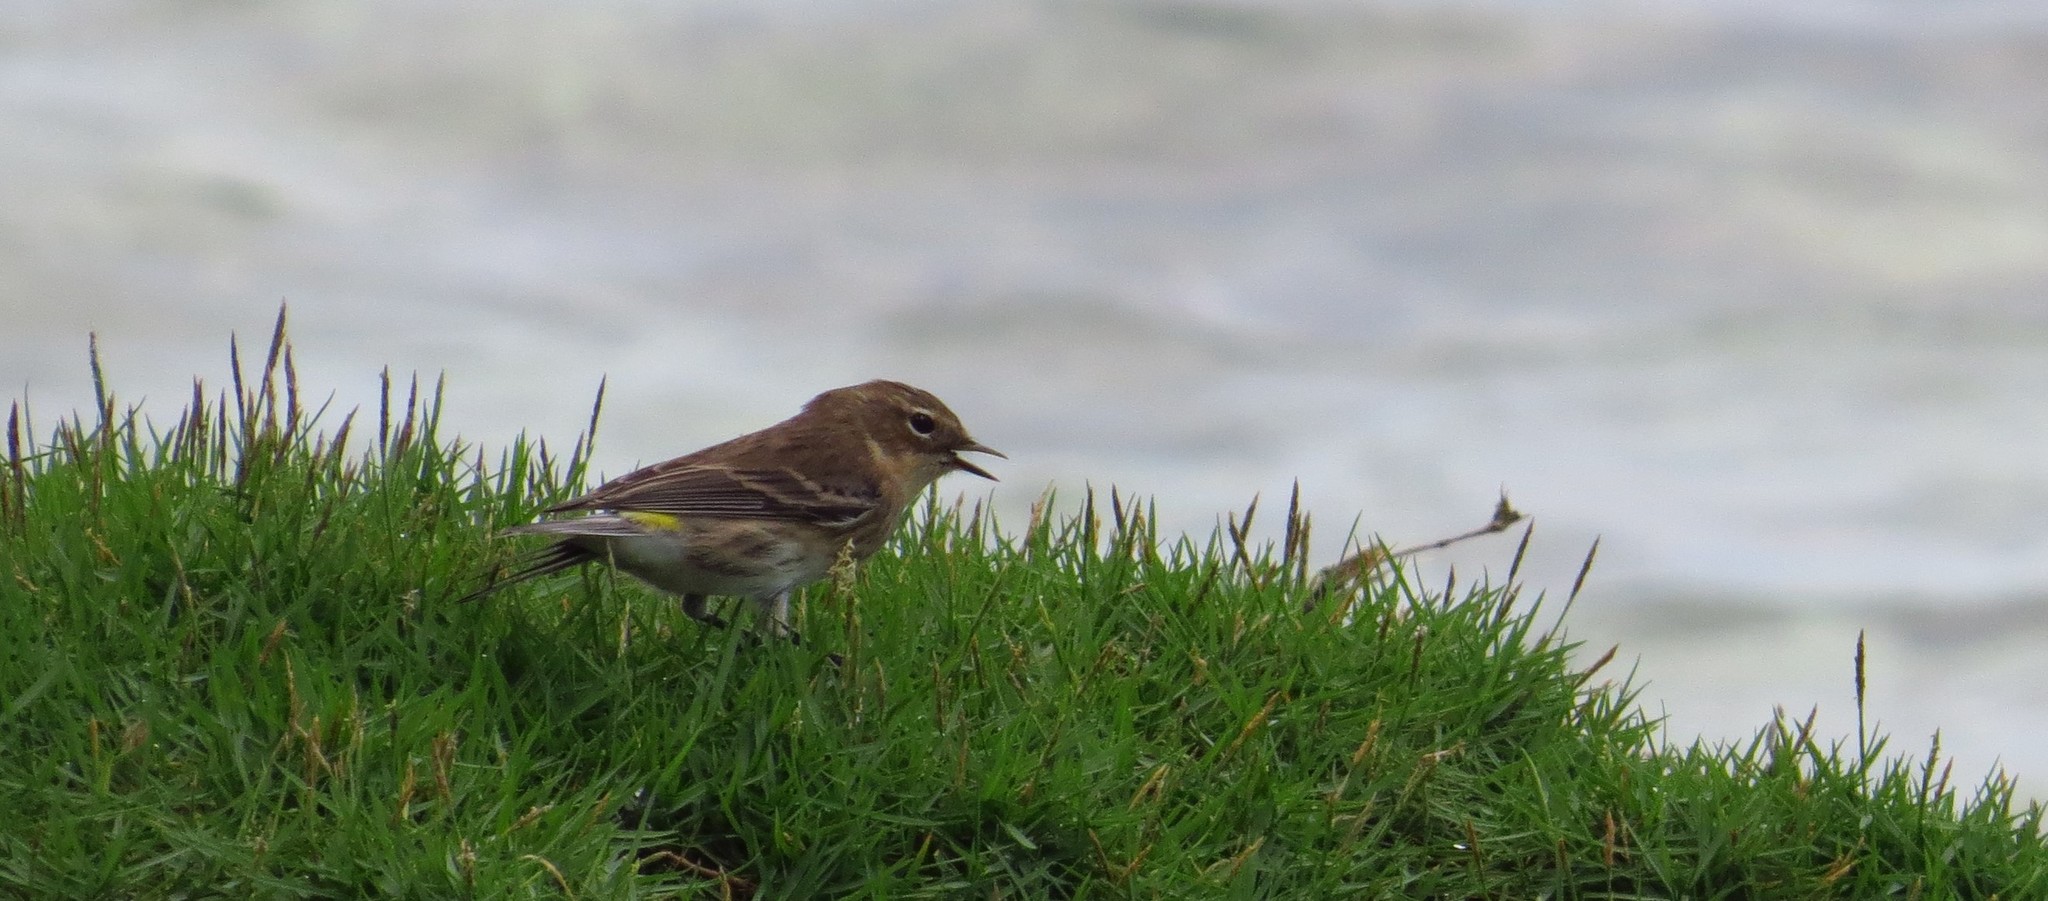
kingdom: Animalia
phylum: Chordata
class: Aves
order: Passeriformes
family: Parulidae
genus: Setophaga
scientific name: Setophaga coronata
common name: Myrtle warbler
